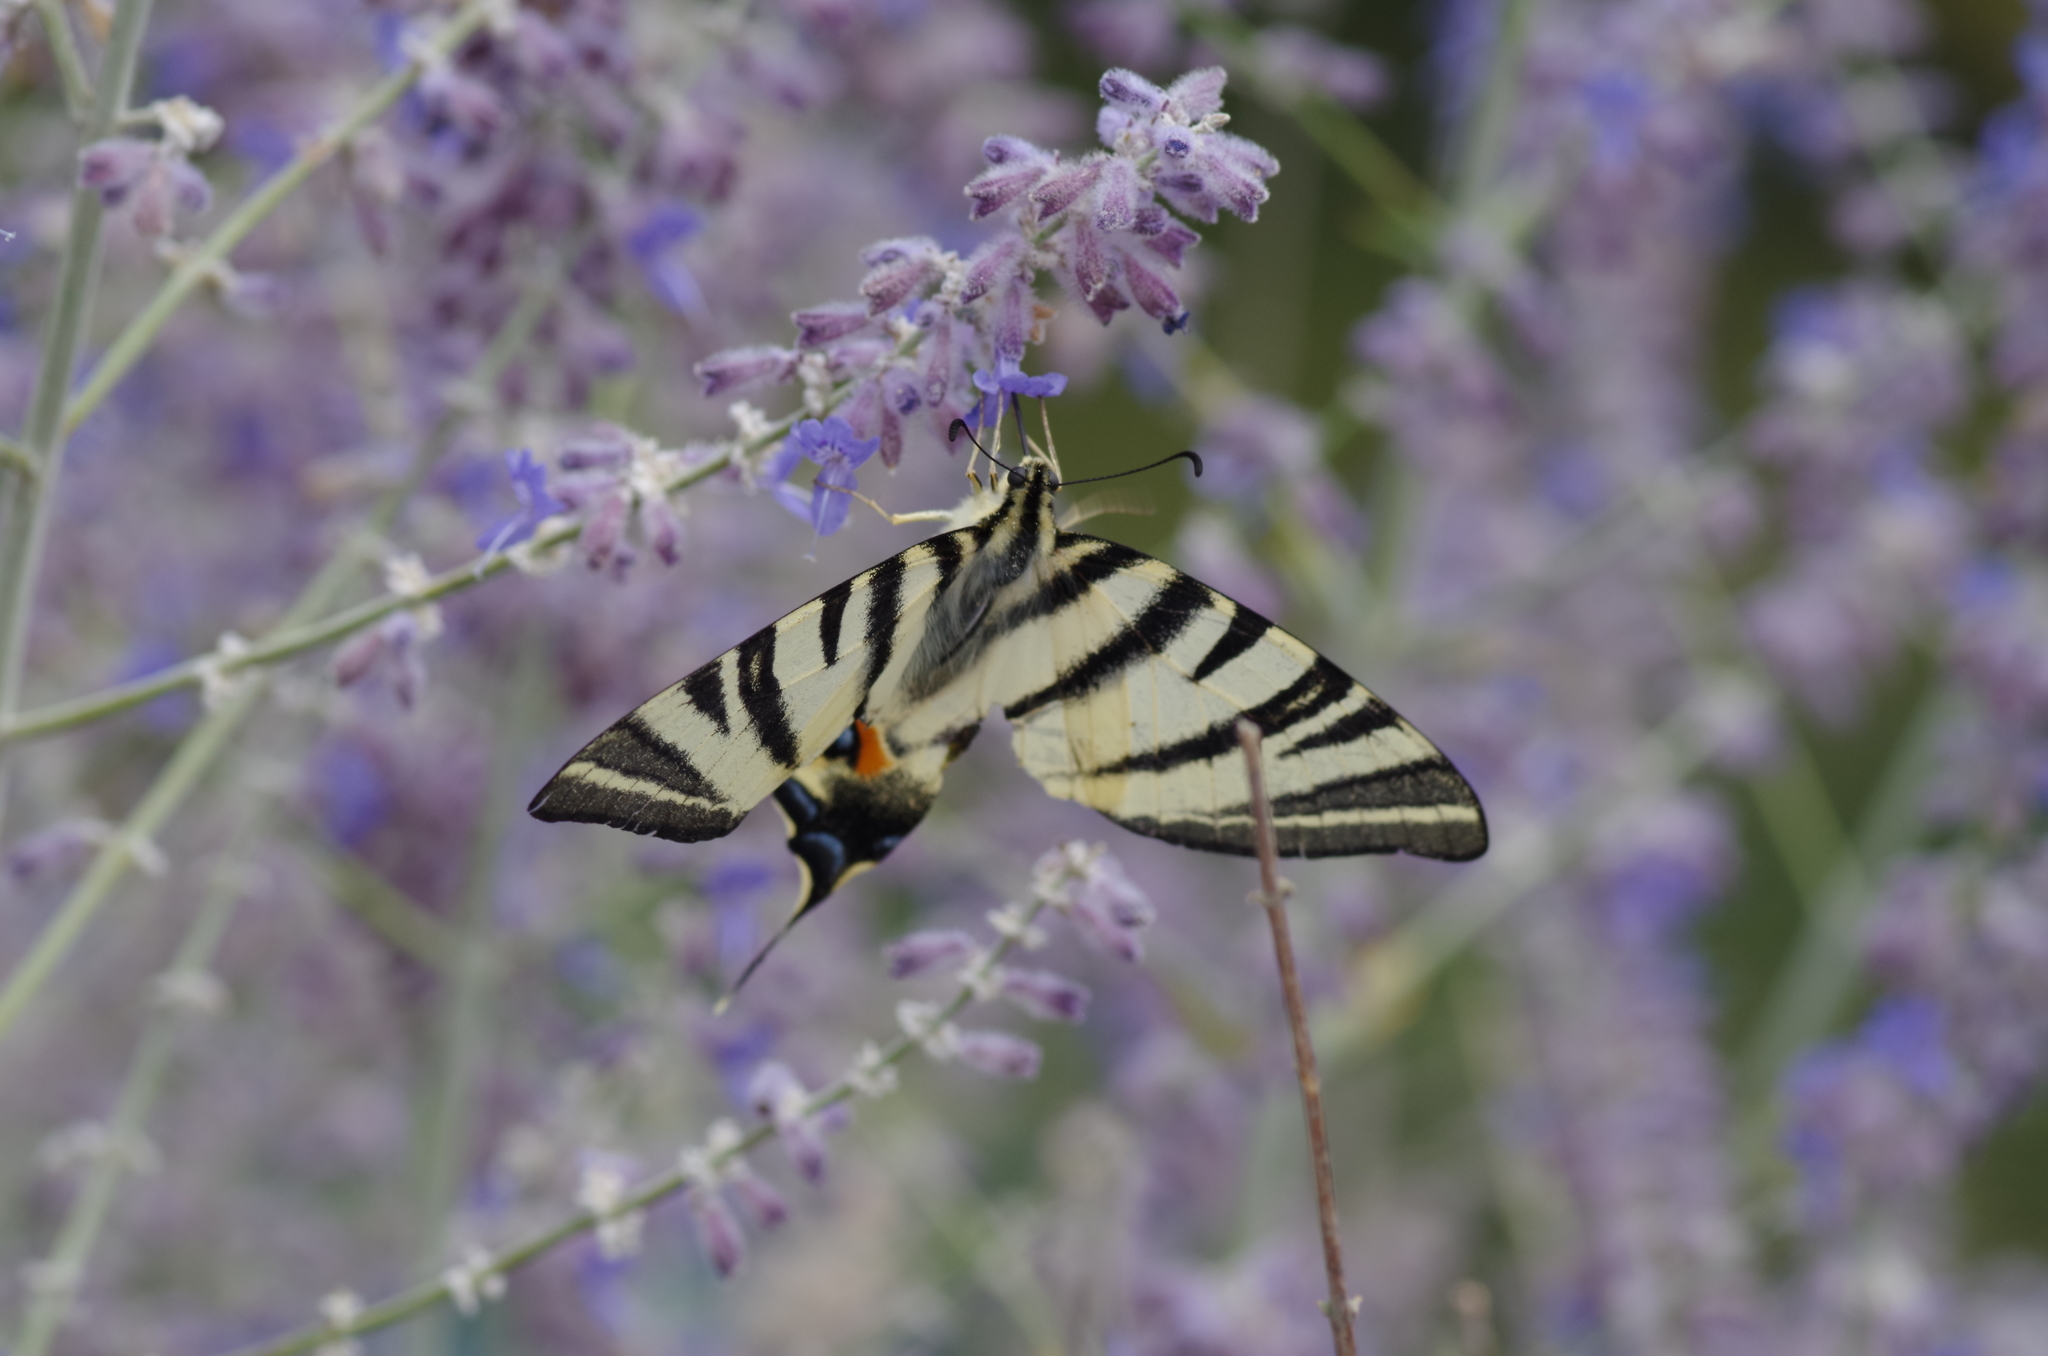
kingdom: Animalia
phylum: Arthropoda
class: Insecta
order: Lepidoptera
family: Papilionidae
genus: Iphiclides
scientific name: Iphiclides podalirius
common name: Scarce swallowtail
